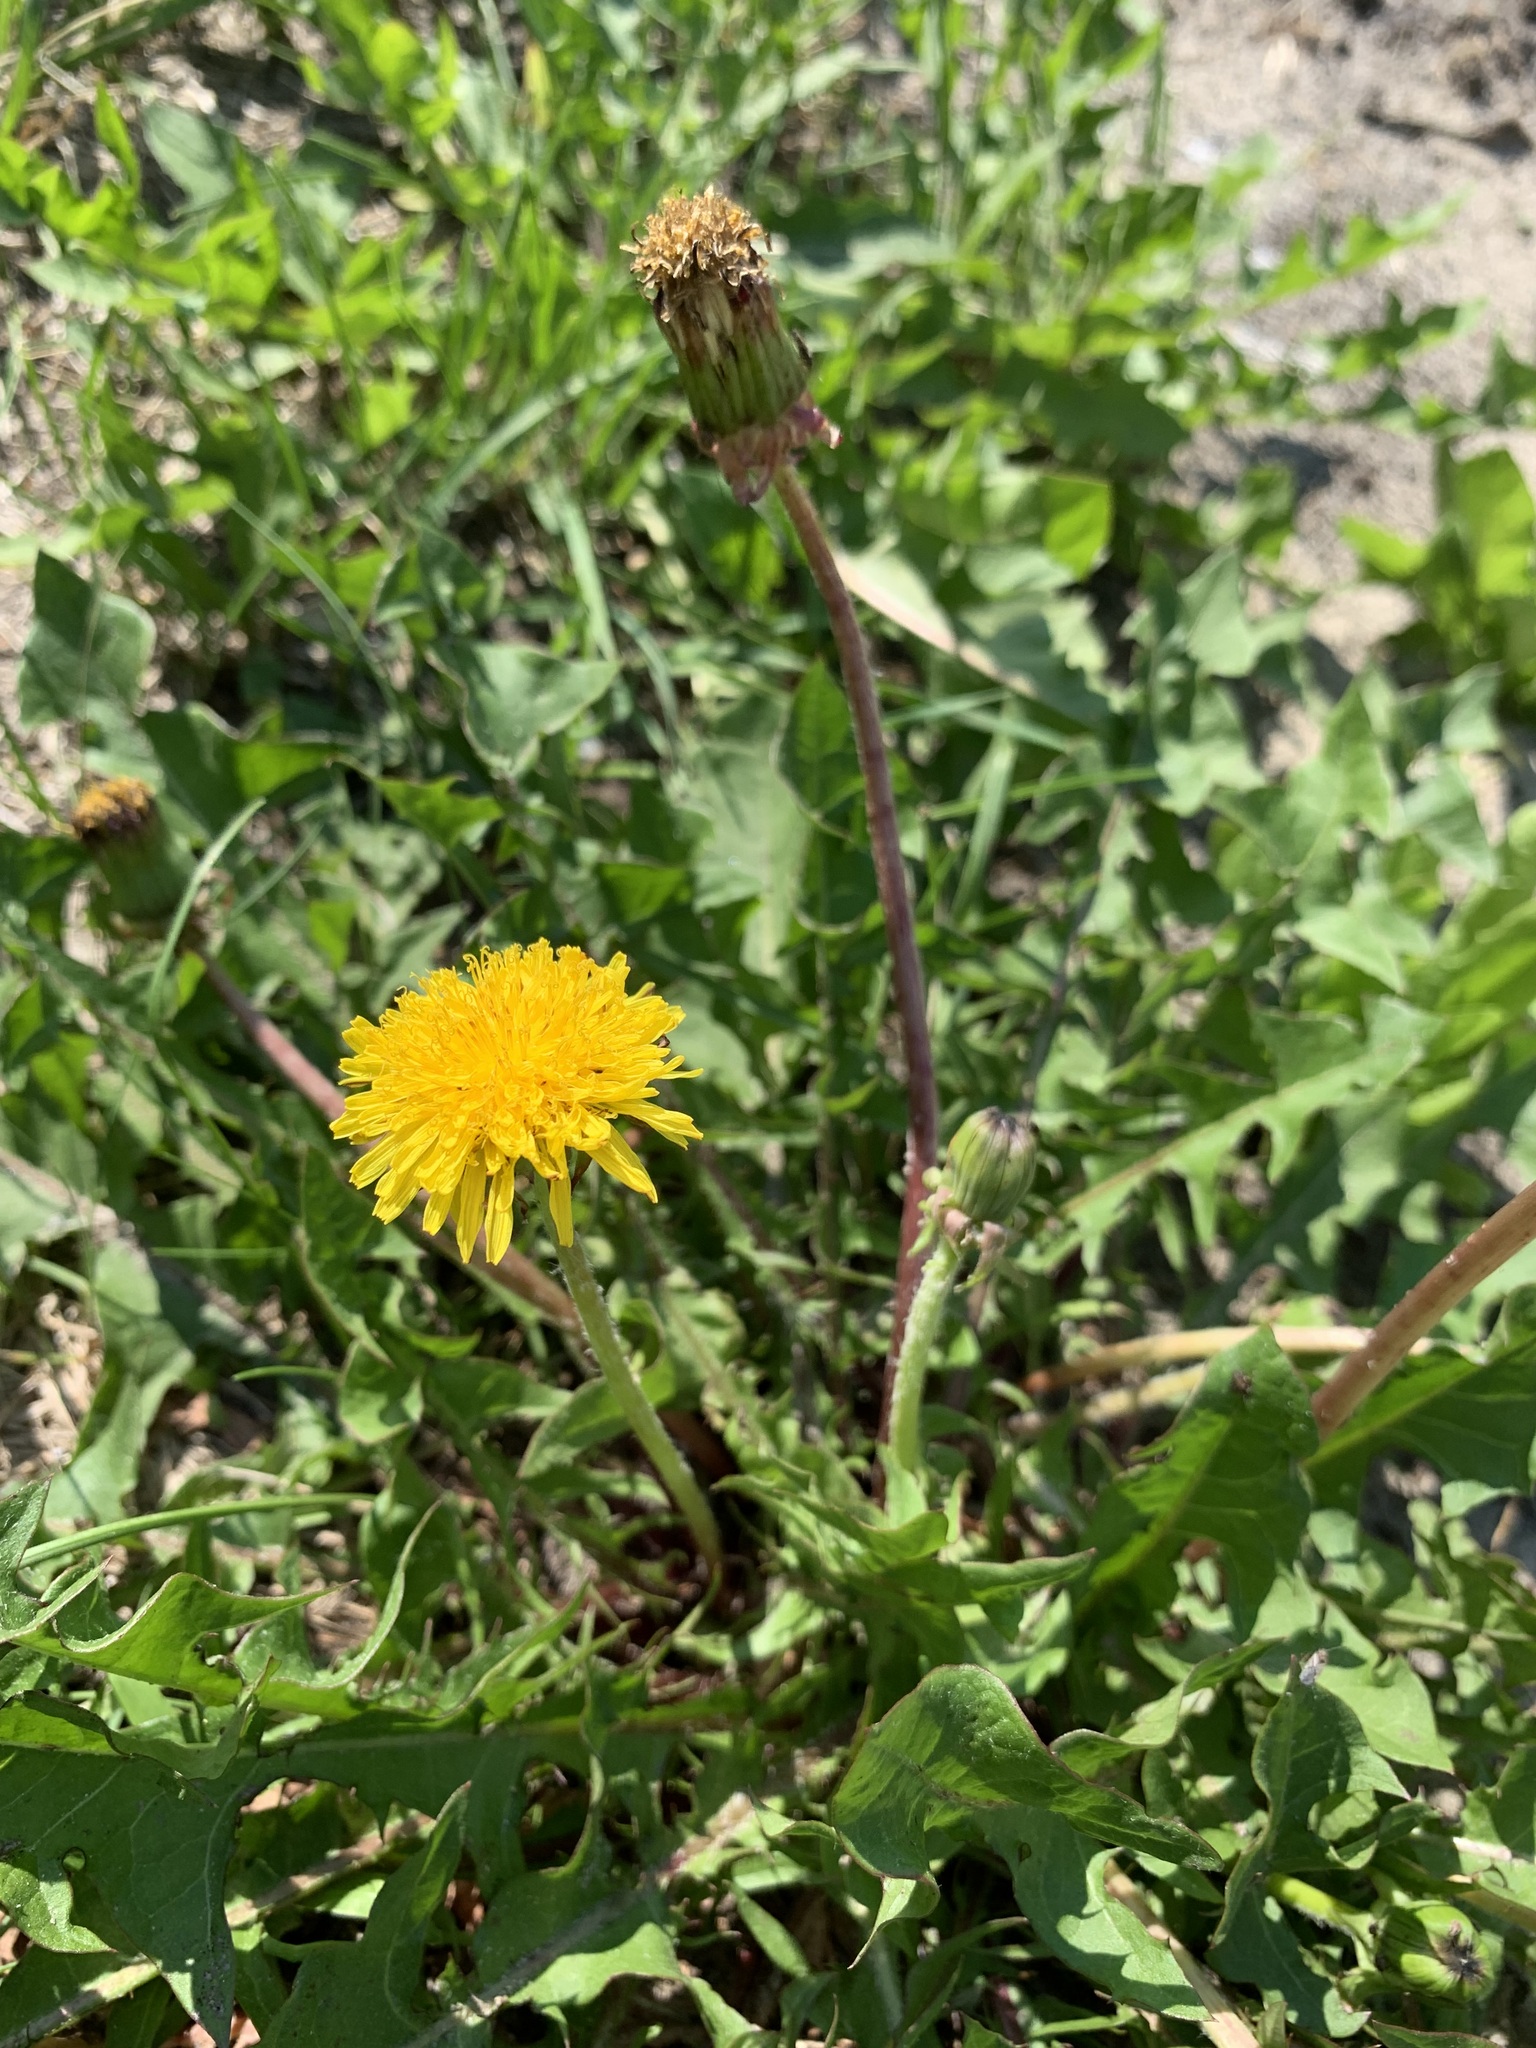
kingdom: Plantae
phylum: Tracheophyta
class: Magnoliopsida
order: Asterales
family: Asteraceae
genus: Taraxacum
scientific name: Taraxacum officinale
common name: Common dandelion
